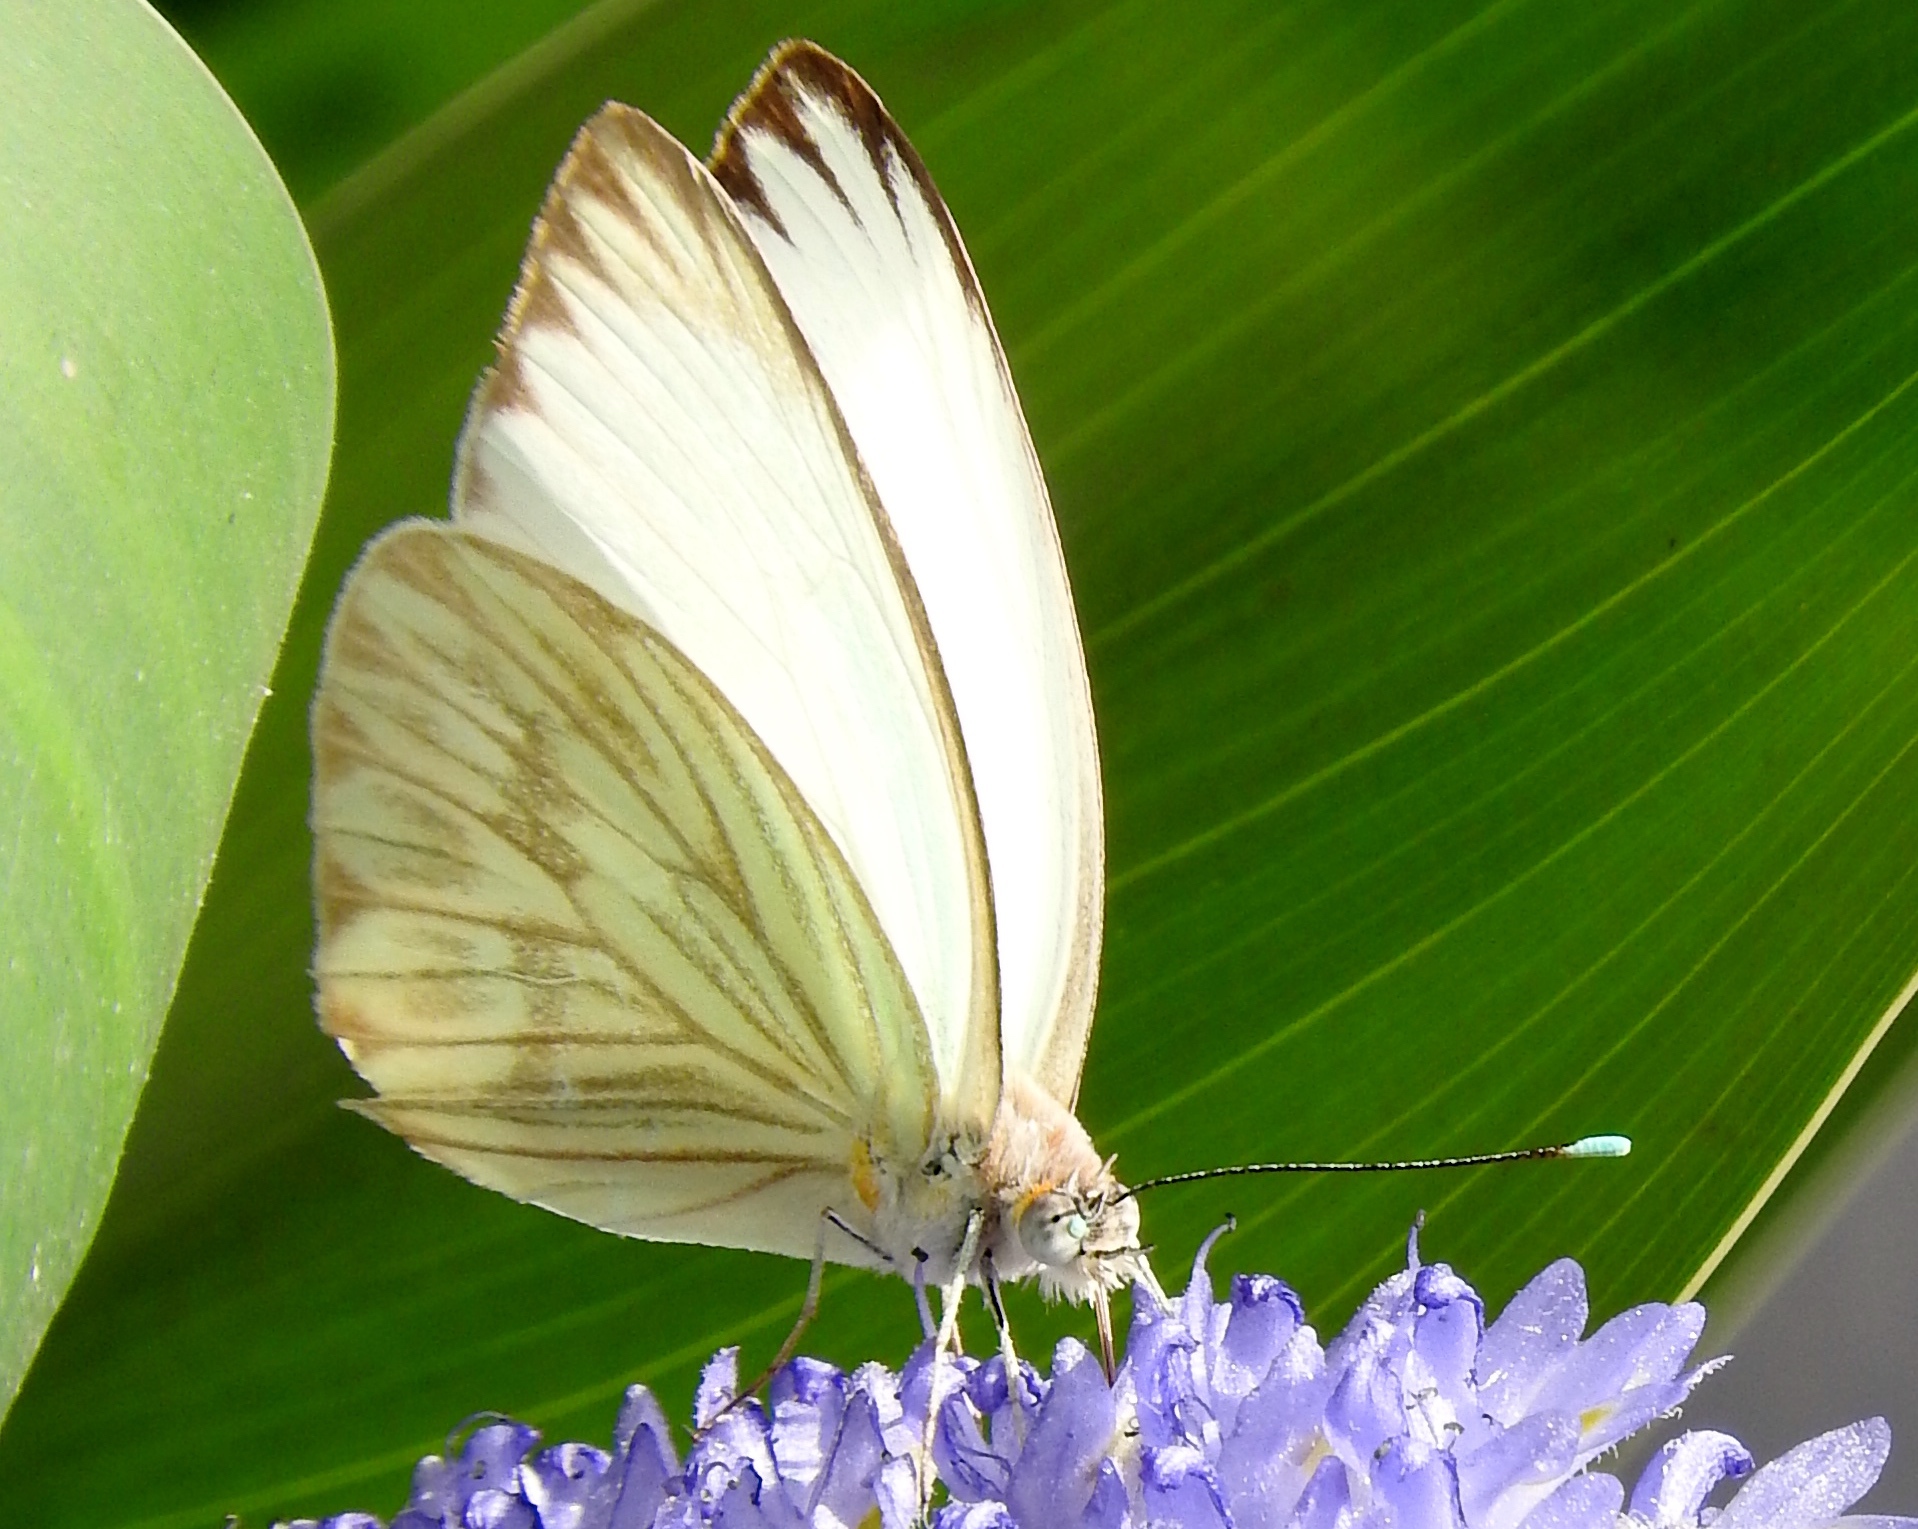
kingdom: Animalia
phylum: Arthropoda
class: Insecta
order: Lepidoptera
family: Pieridae
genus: Ascia
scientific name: Ascia monuste
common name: Great southern white
